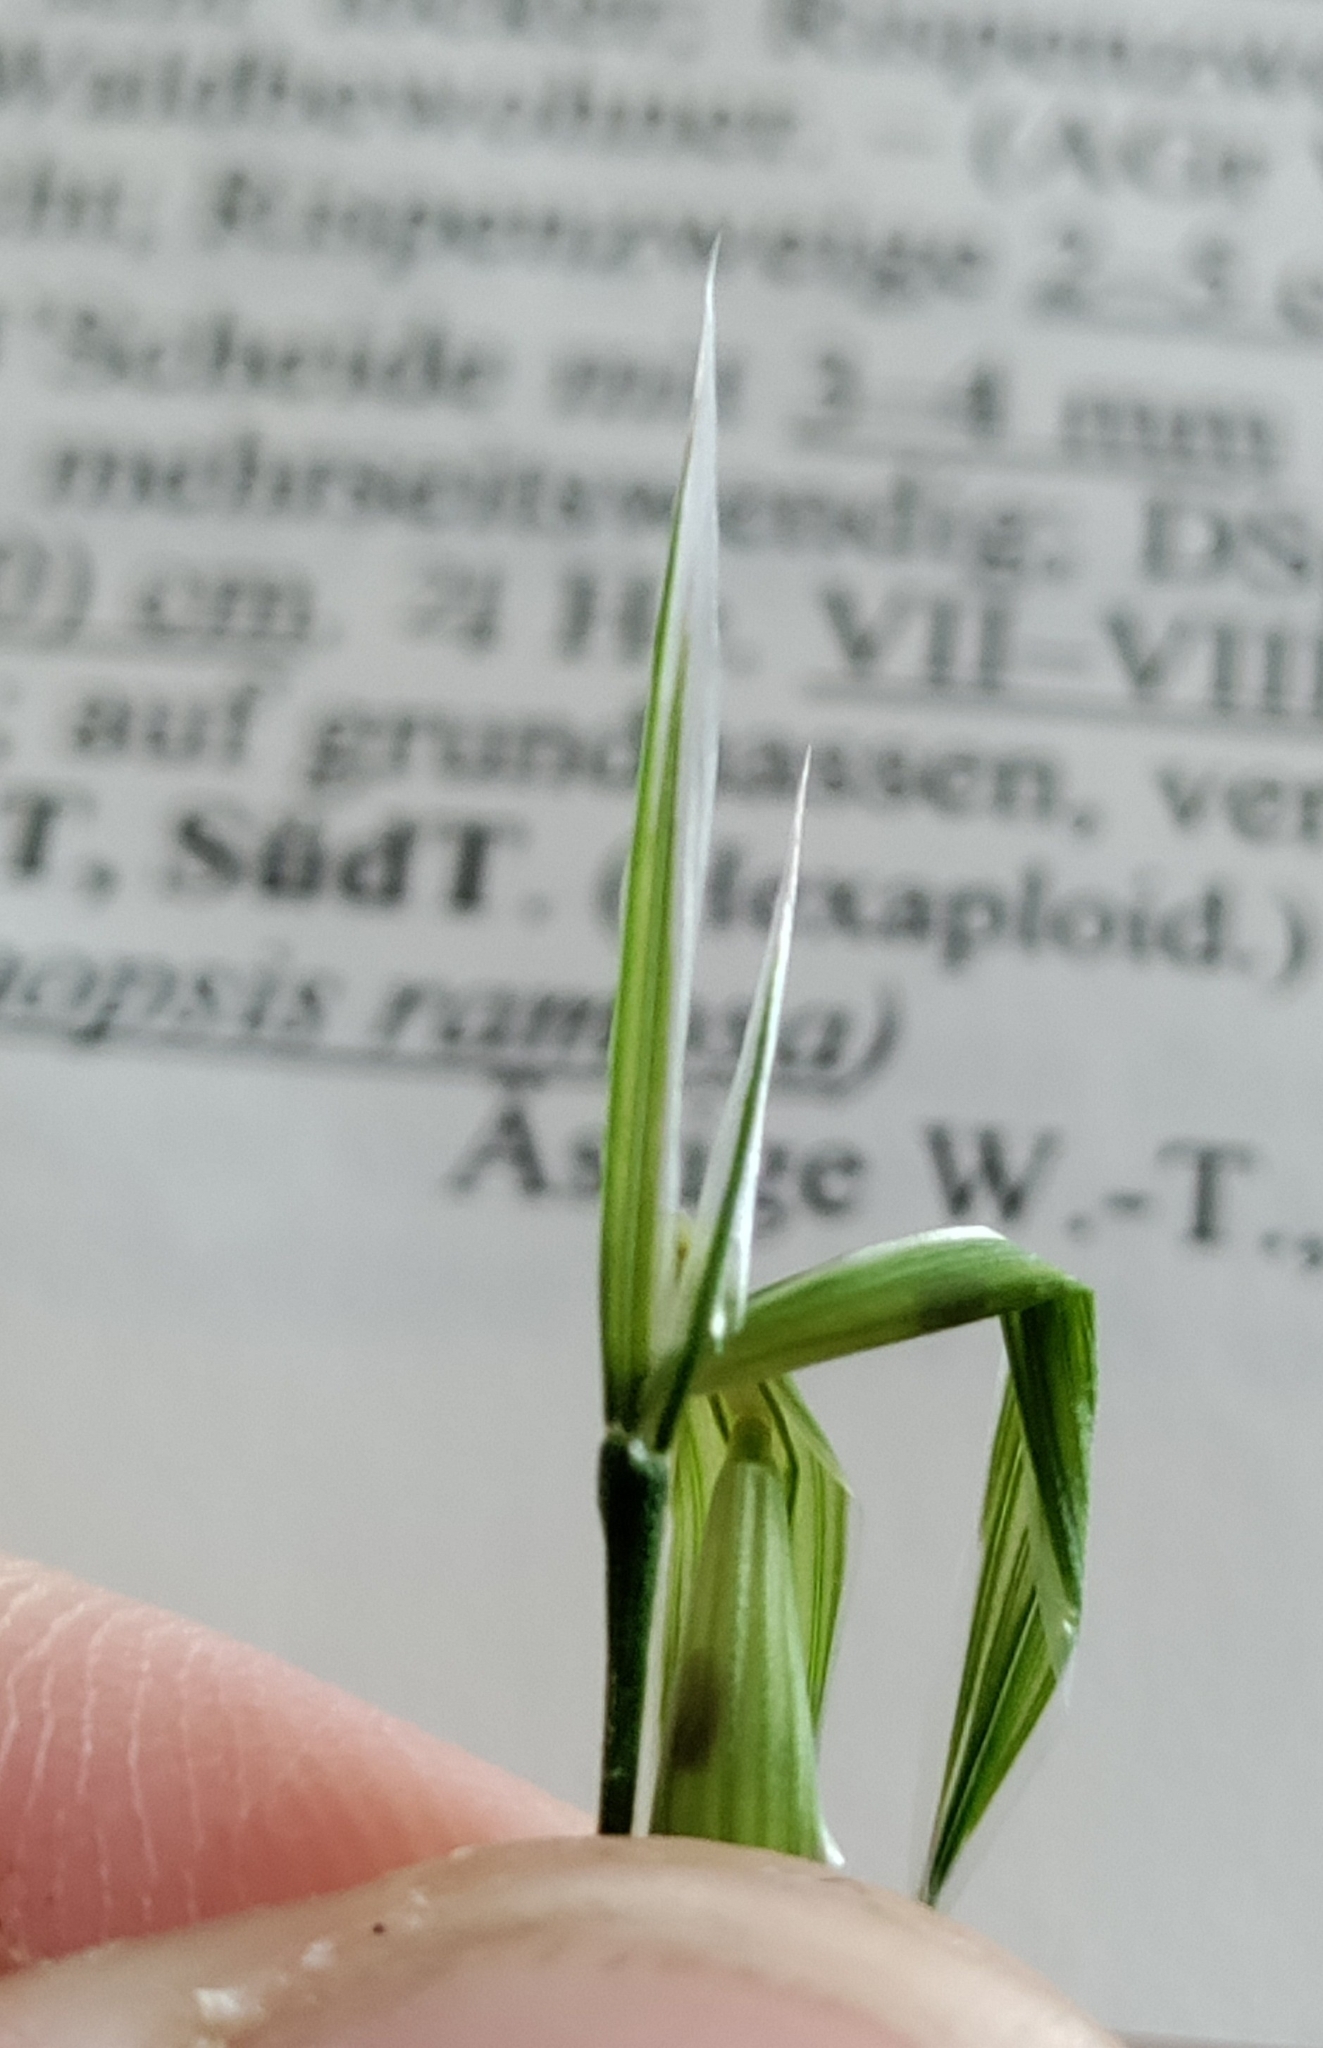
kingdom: Plantae
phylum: Tracheophyta
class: Liliopsida
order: Poales
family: Poaceae
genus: Bromus
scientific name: Bromus sterilis
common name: Poverty brome
